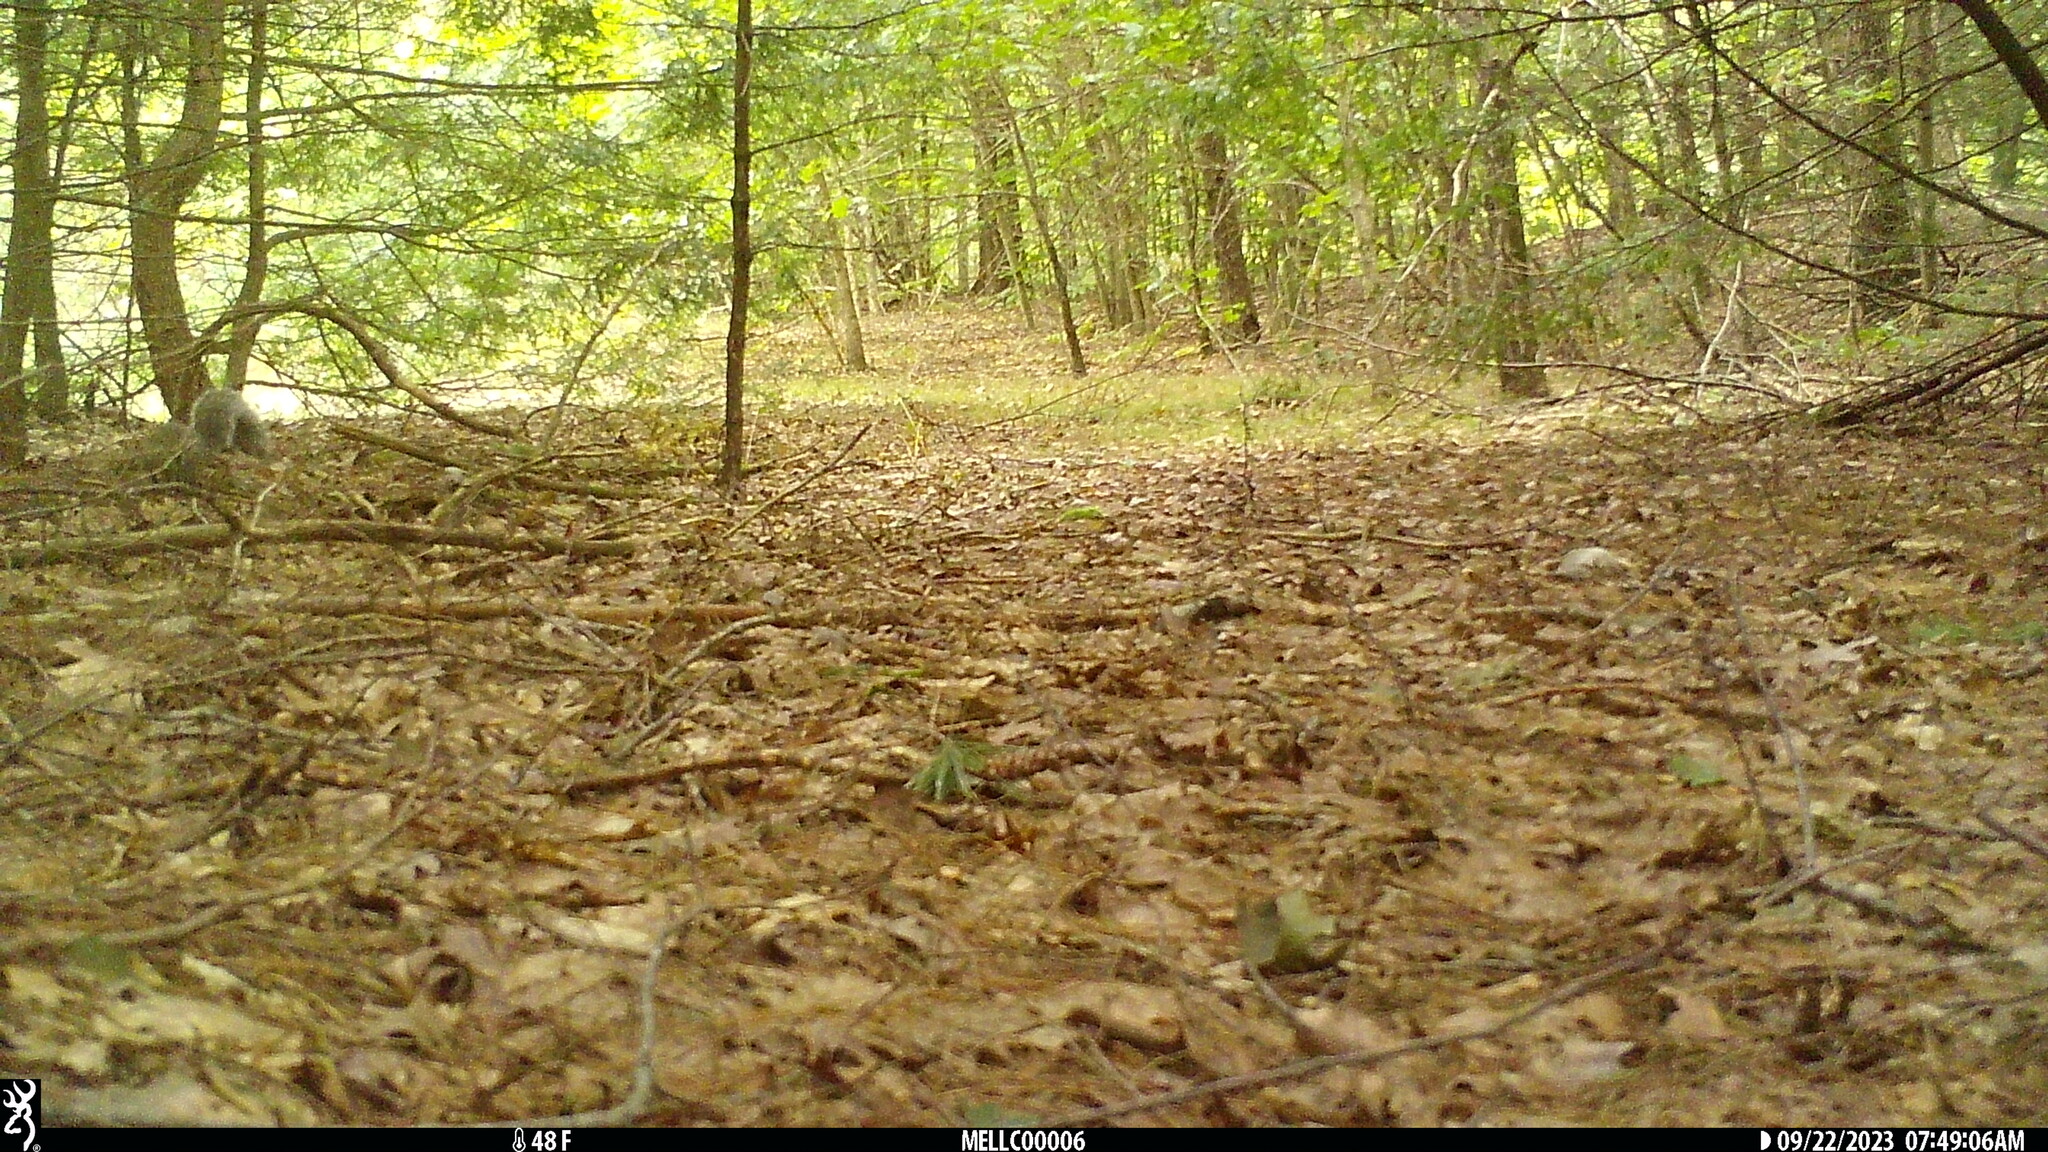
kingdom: Animalia
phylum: Chordata
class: Mammalia
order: Rodentia
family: Sciuridae
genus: Sciurus
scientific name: Sciurus carolinensis
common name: Eastern gray squirrel
